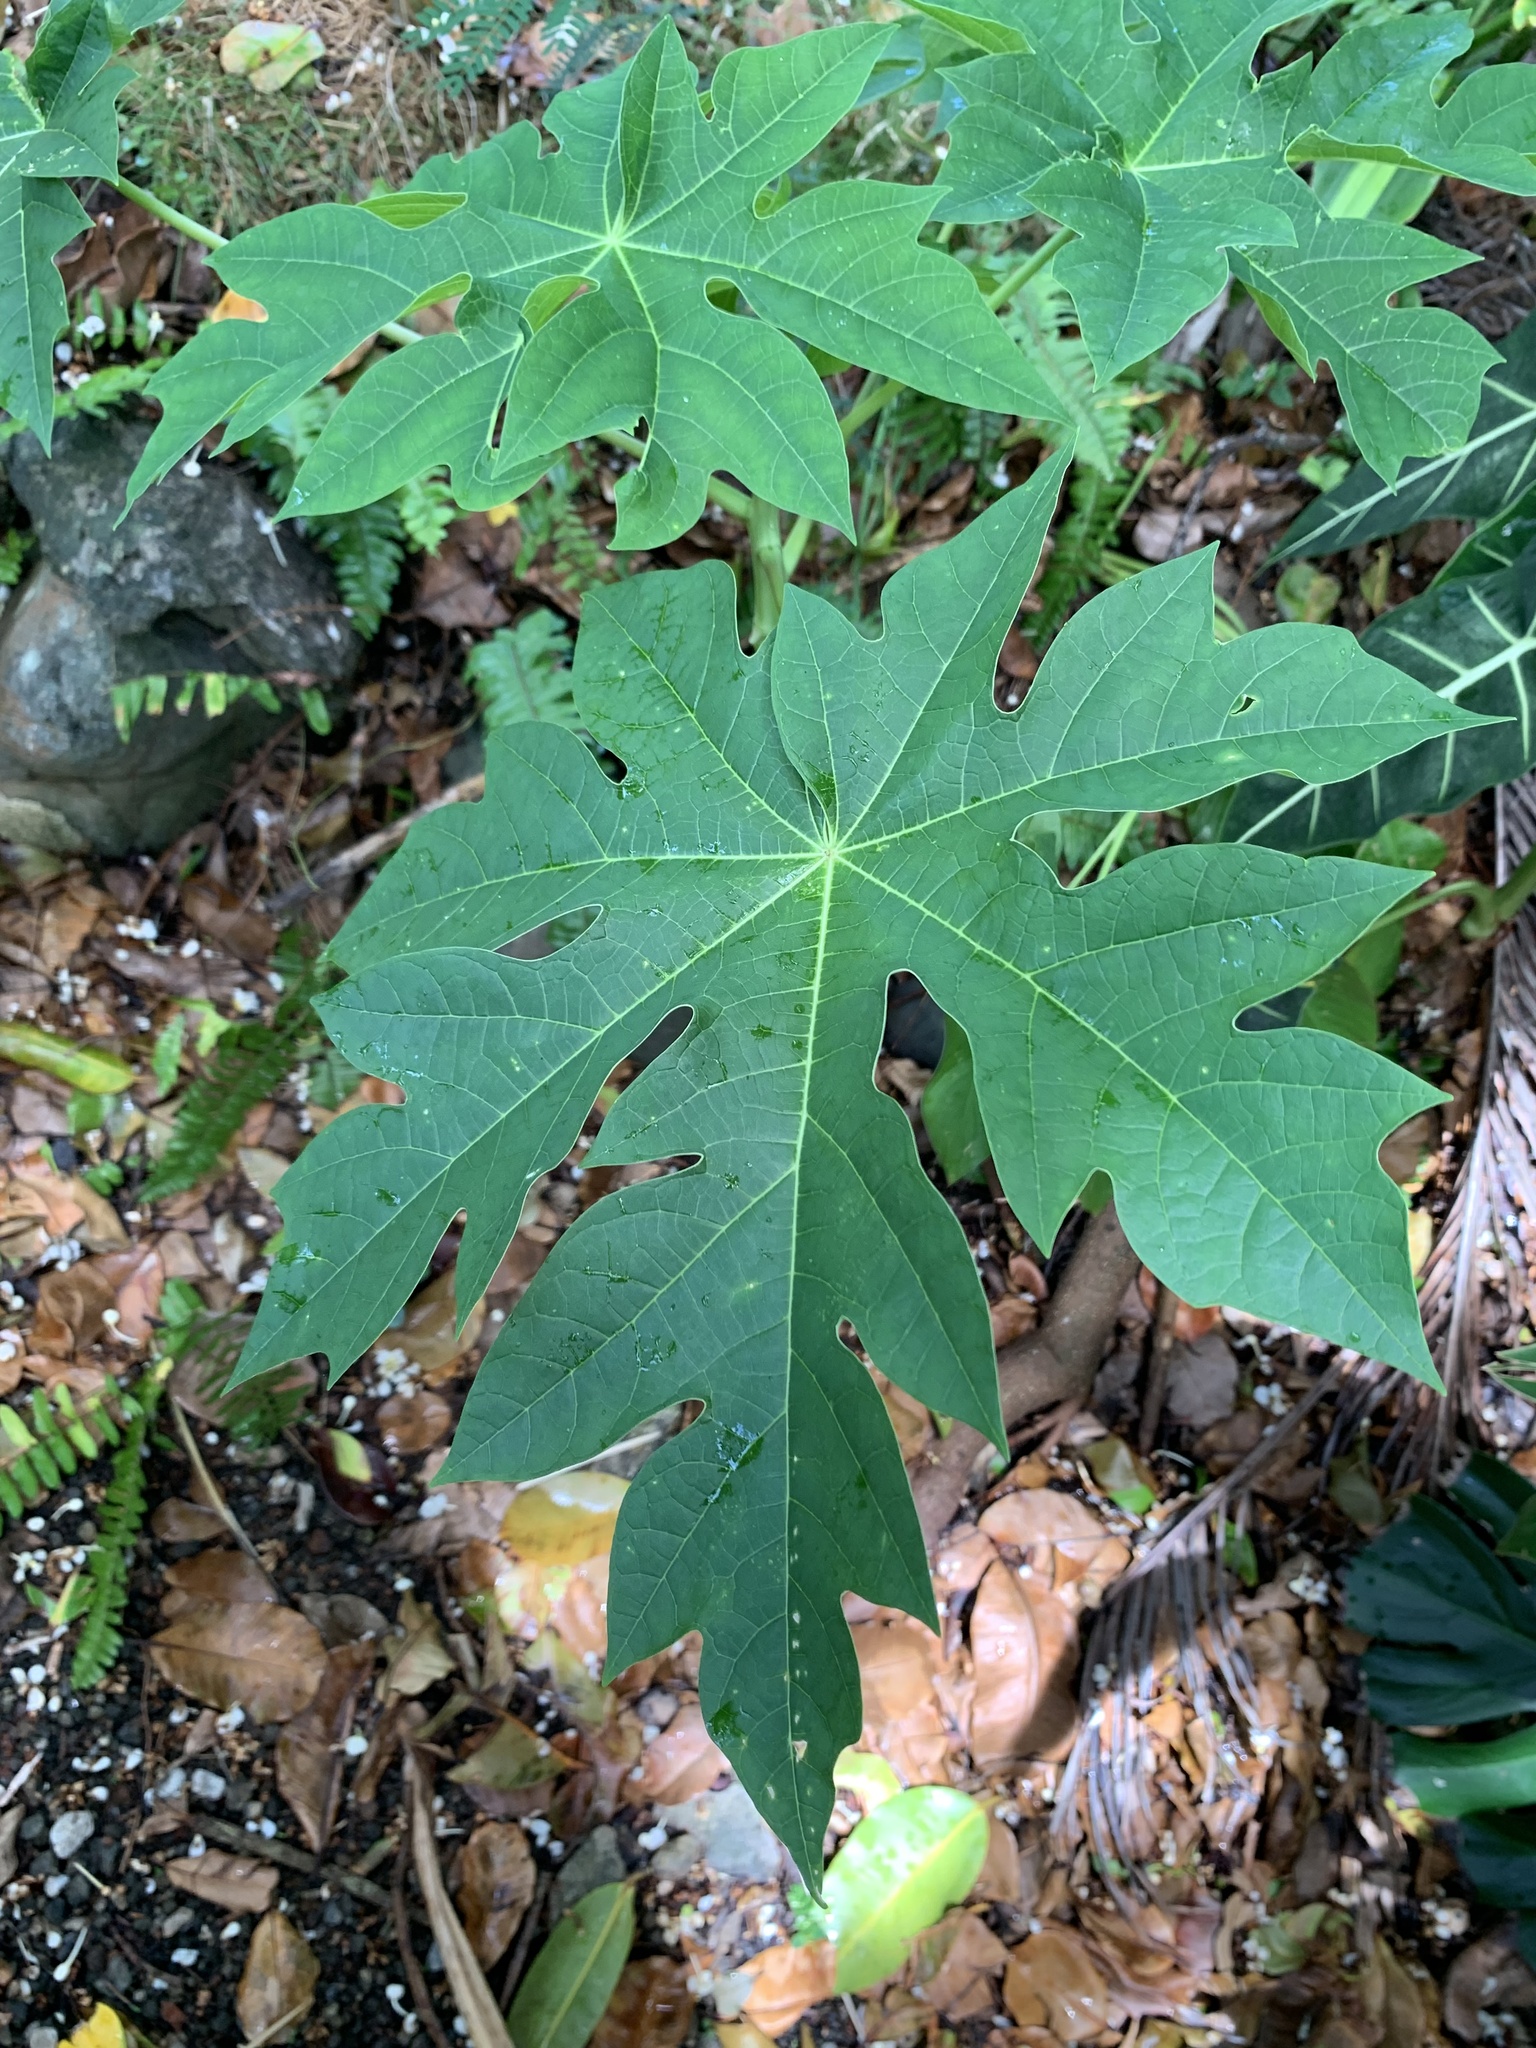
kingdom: Plantae
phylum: Tracheophyta
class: Magnoliopsida
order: Brassicales
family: Caricaceae
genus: Carica
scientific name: Carica papaya
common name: Papaya
